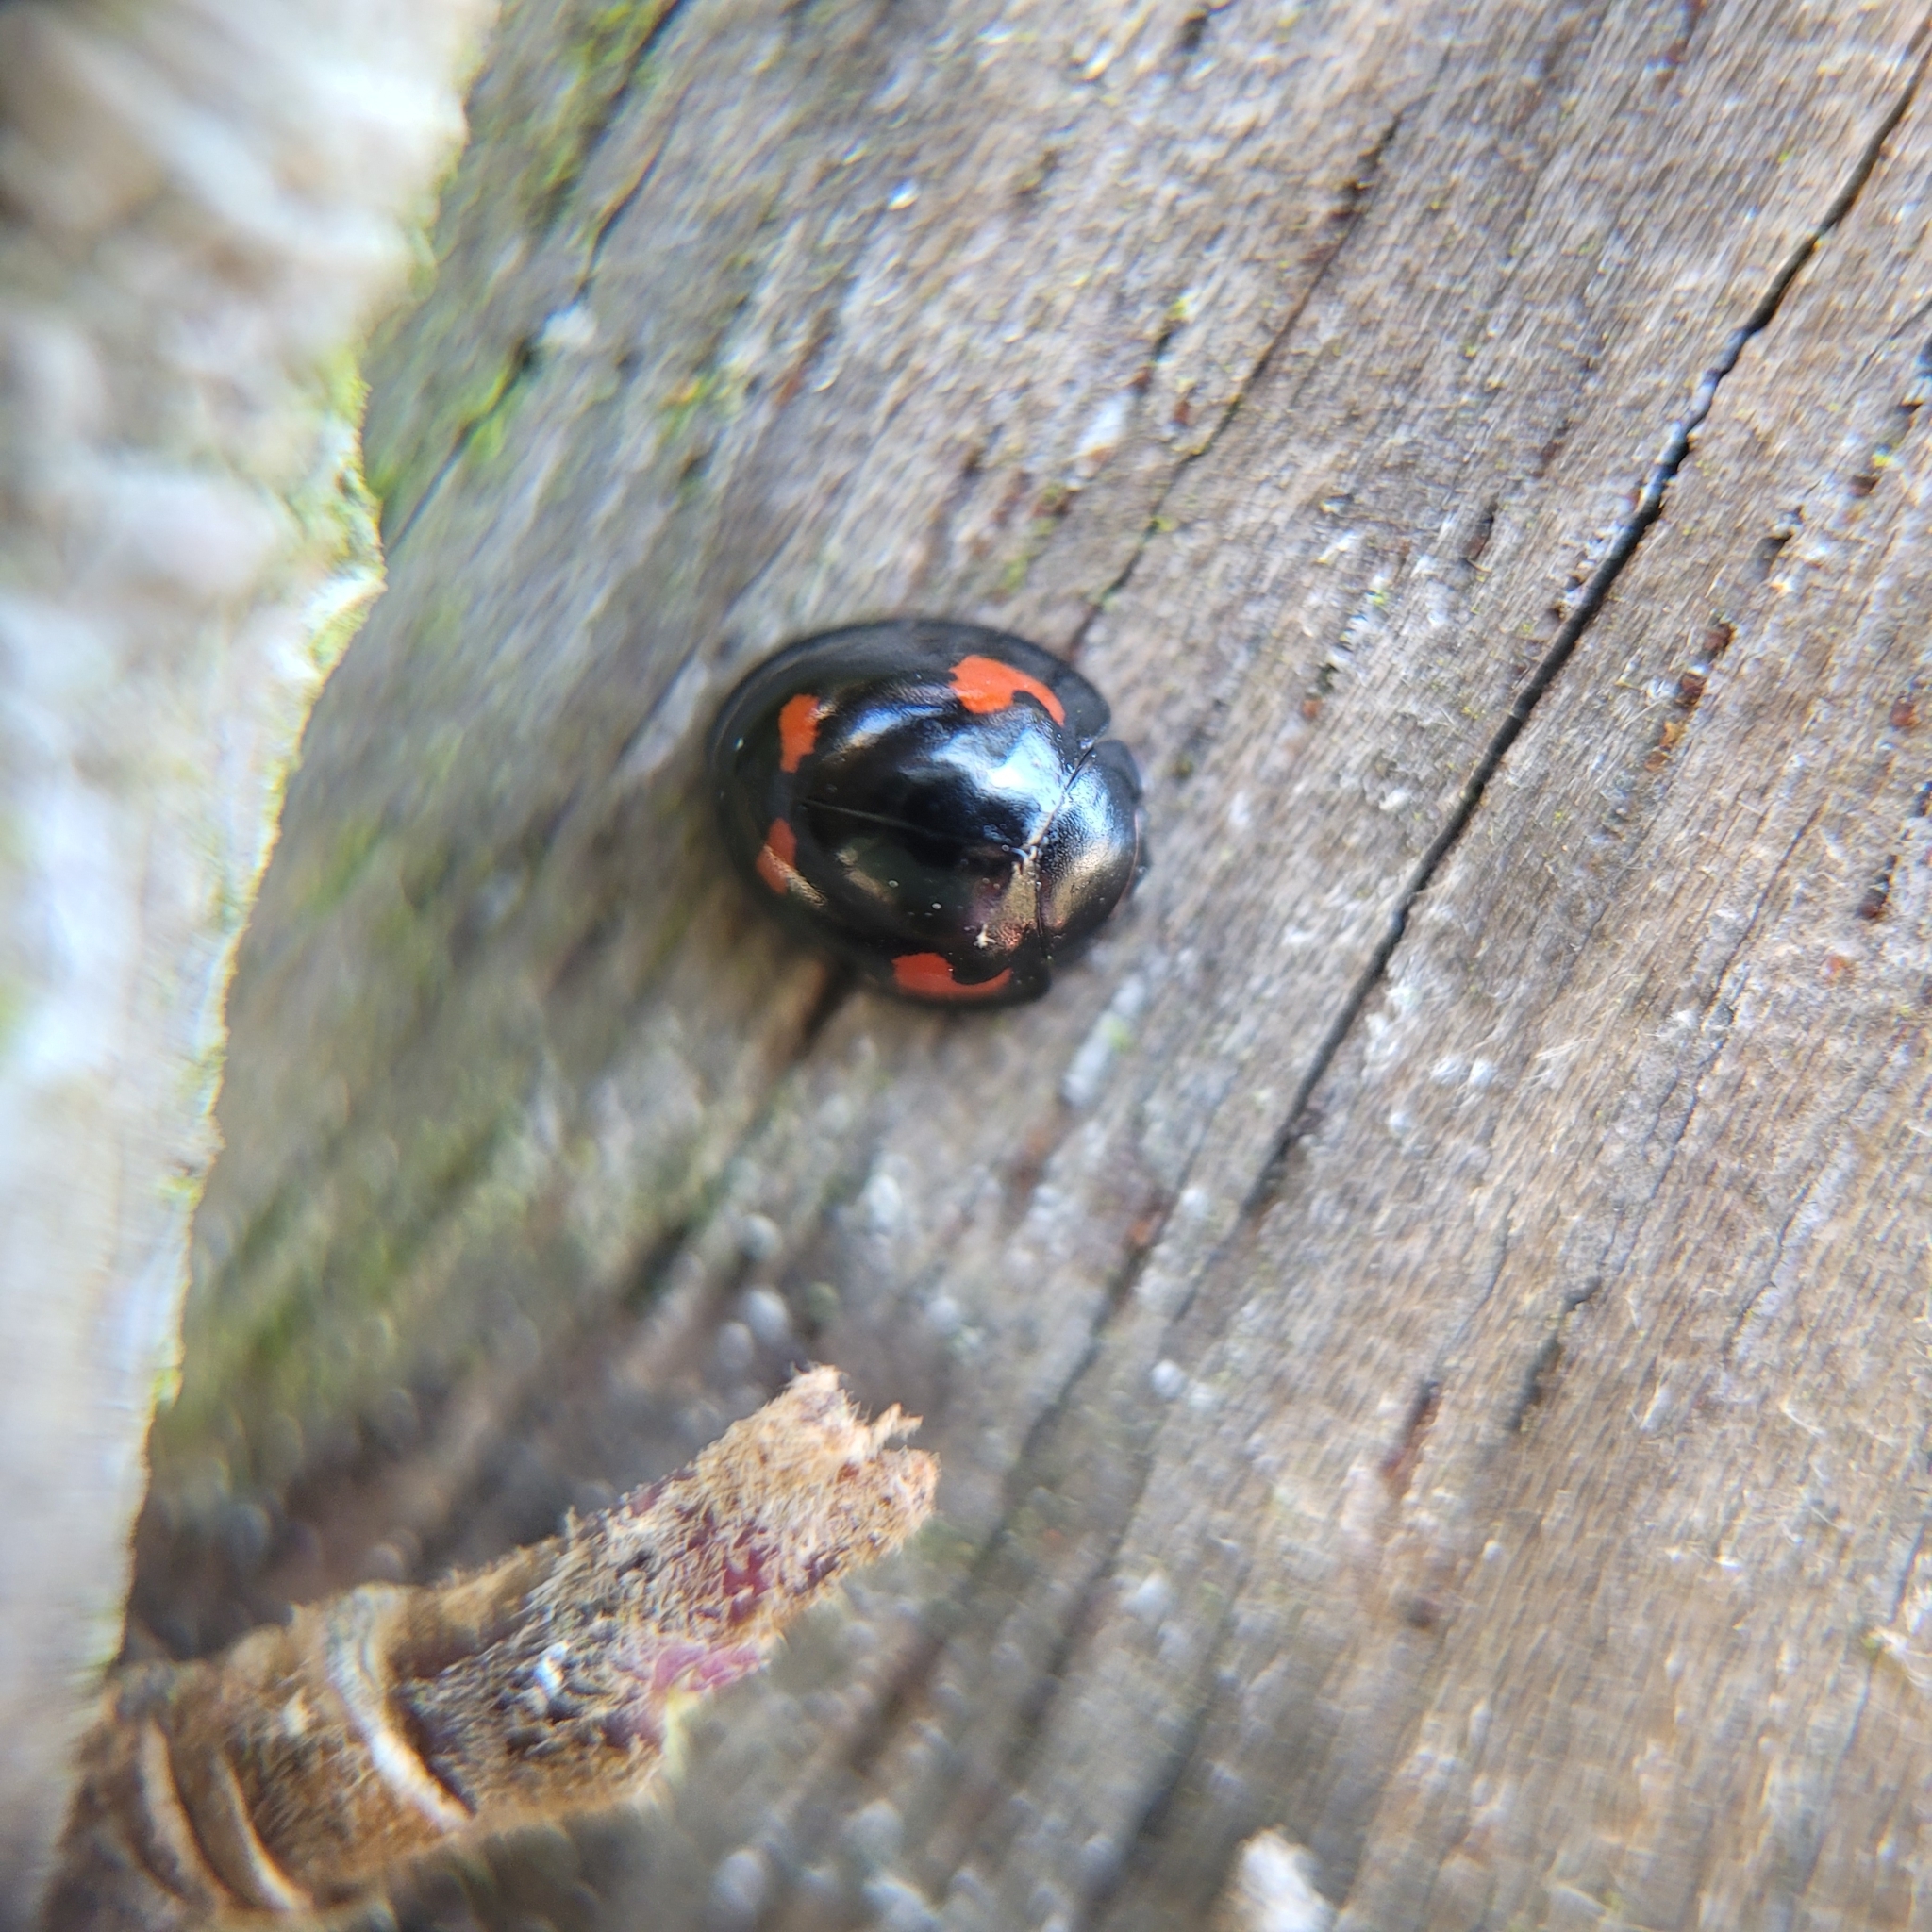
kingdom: Animalia
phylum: Arthropoda
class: Insecta
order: Coleoptera
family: Coccinellidae
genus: Brumus
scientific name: Brumus quadripustulatus
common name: Ladybird beetle
